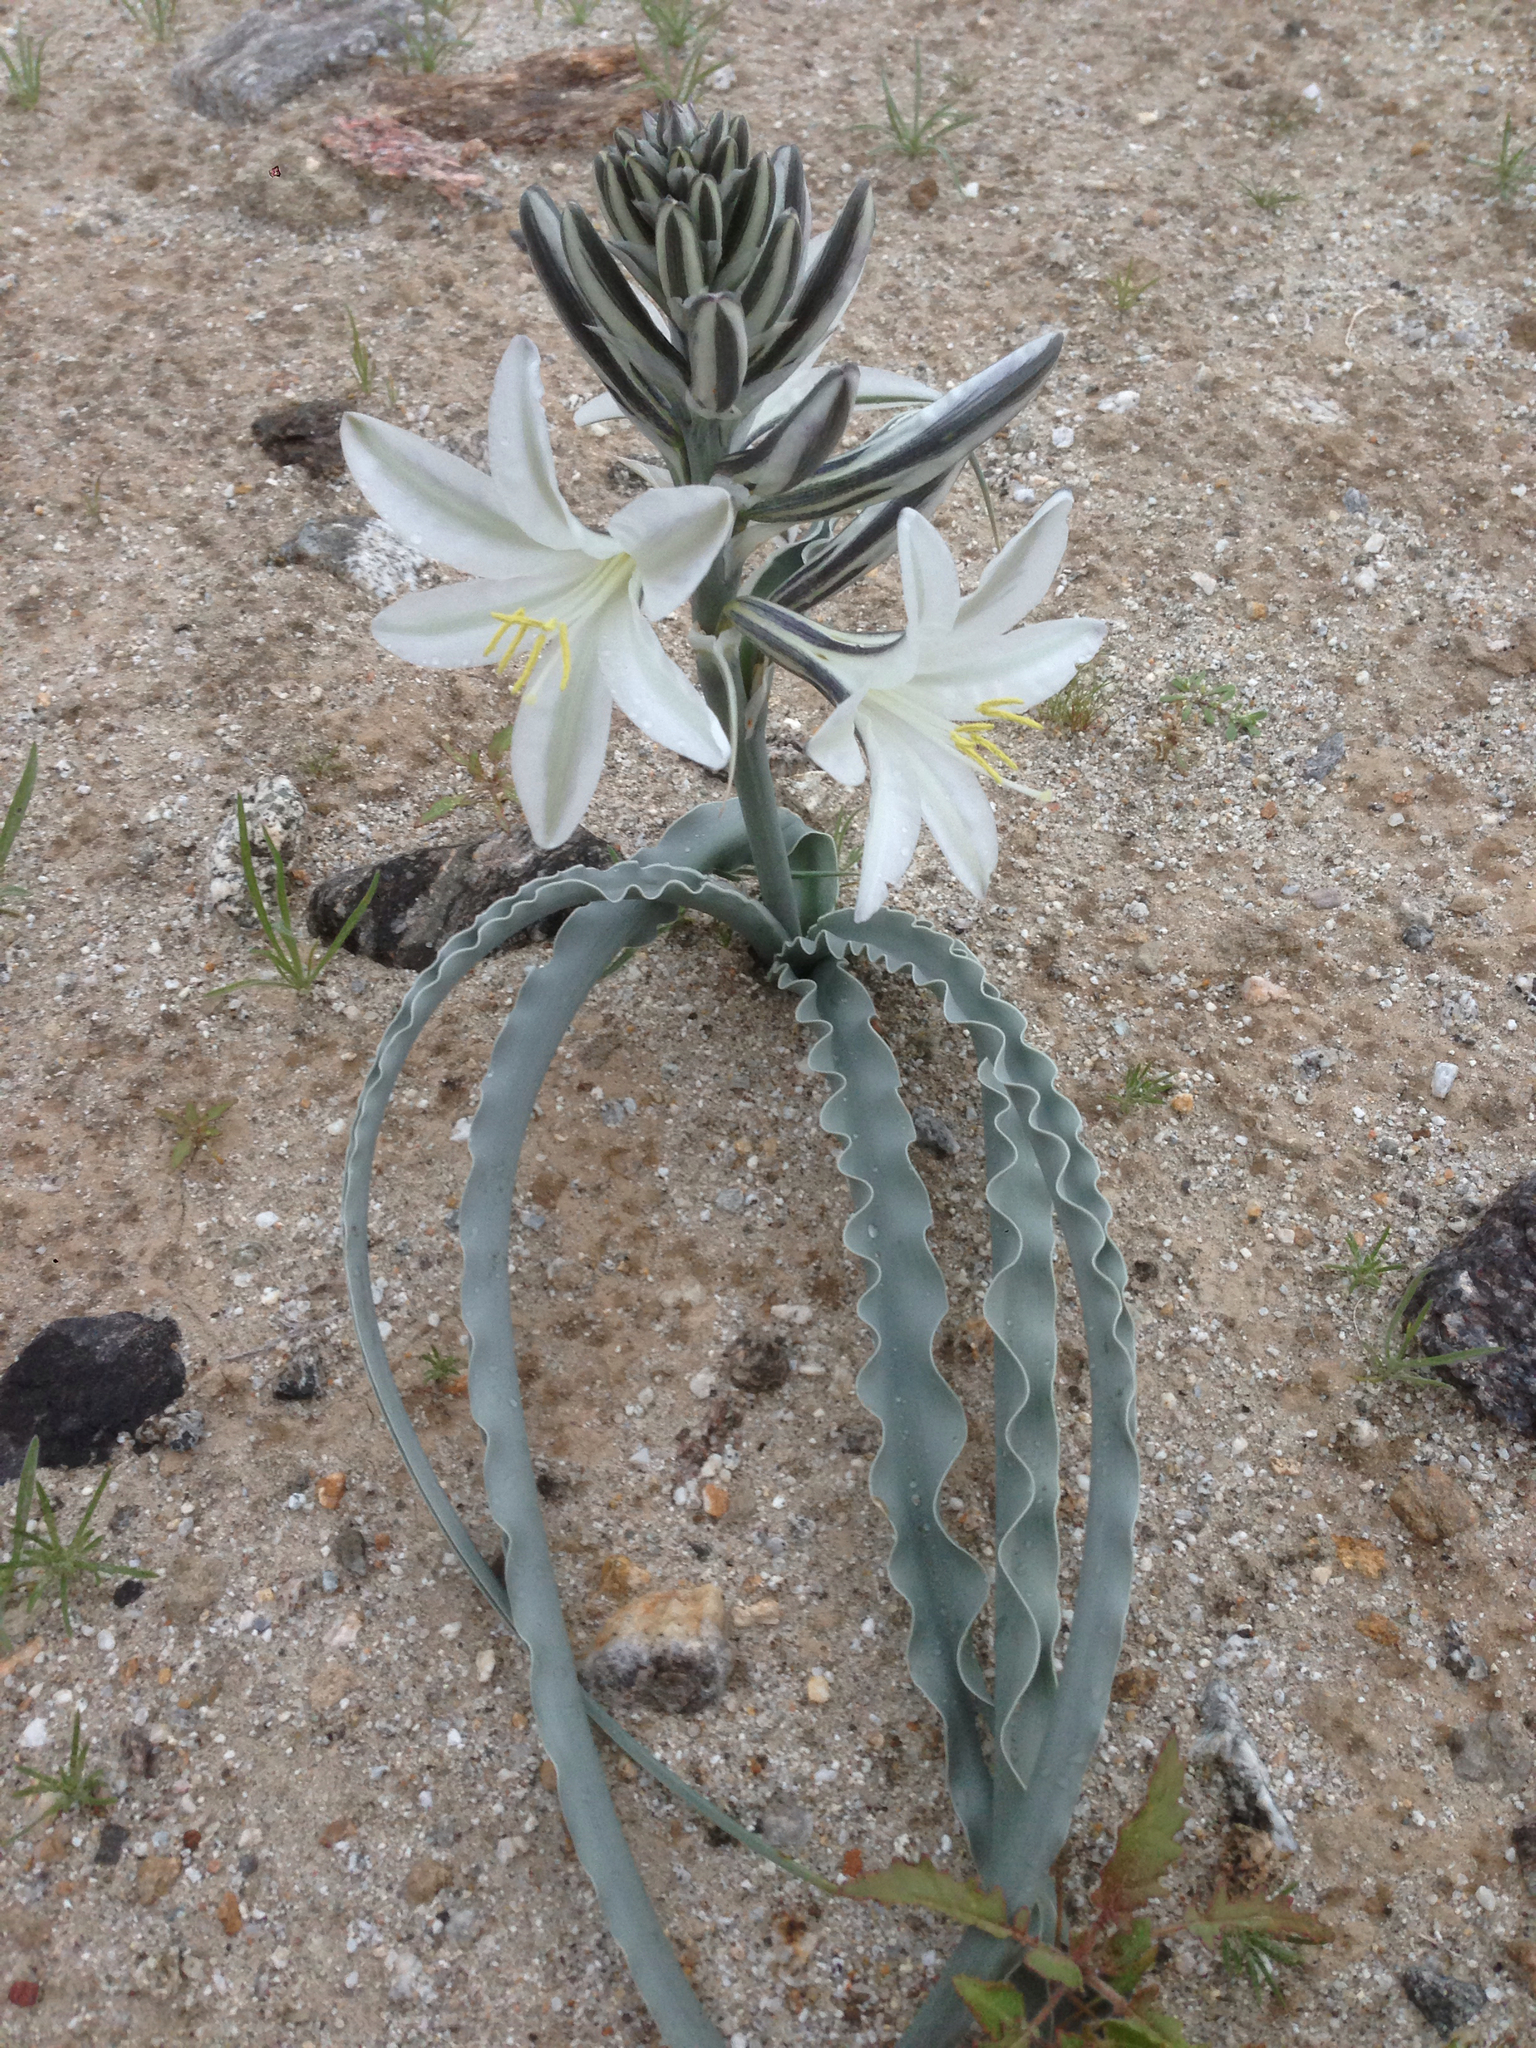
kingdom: Plantae
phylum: Tracheophyta
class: Liliopsida
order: Asparagales
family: Asparagaceae
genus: Hesperocallis
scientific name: Hesperocallis undulata
